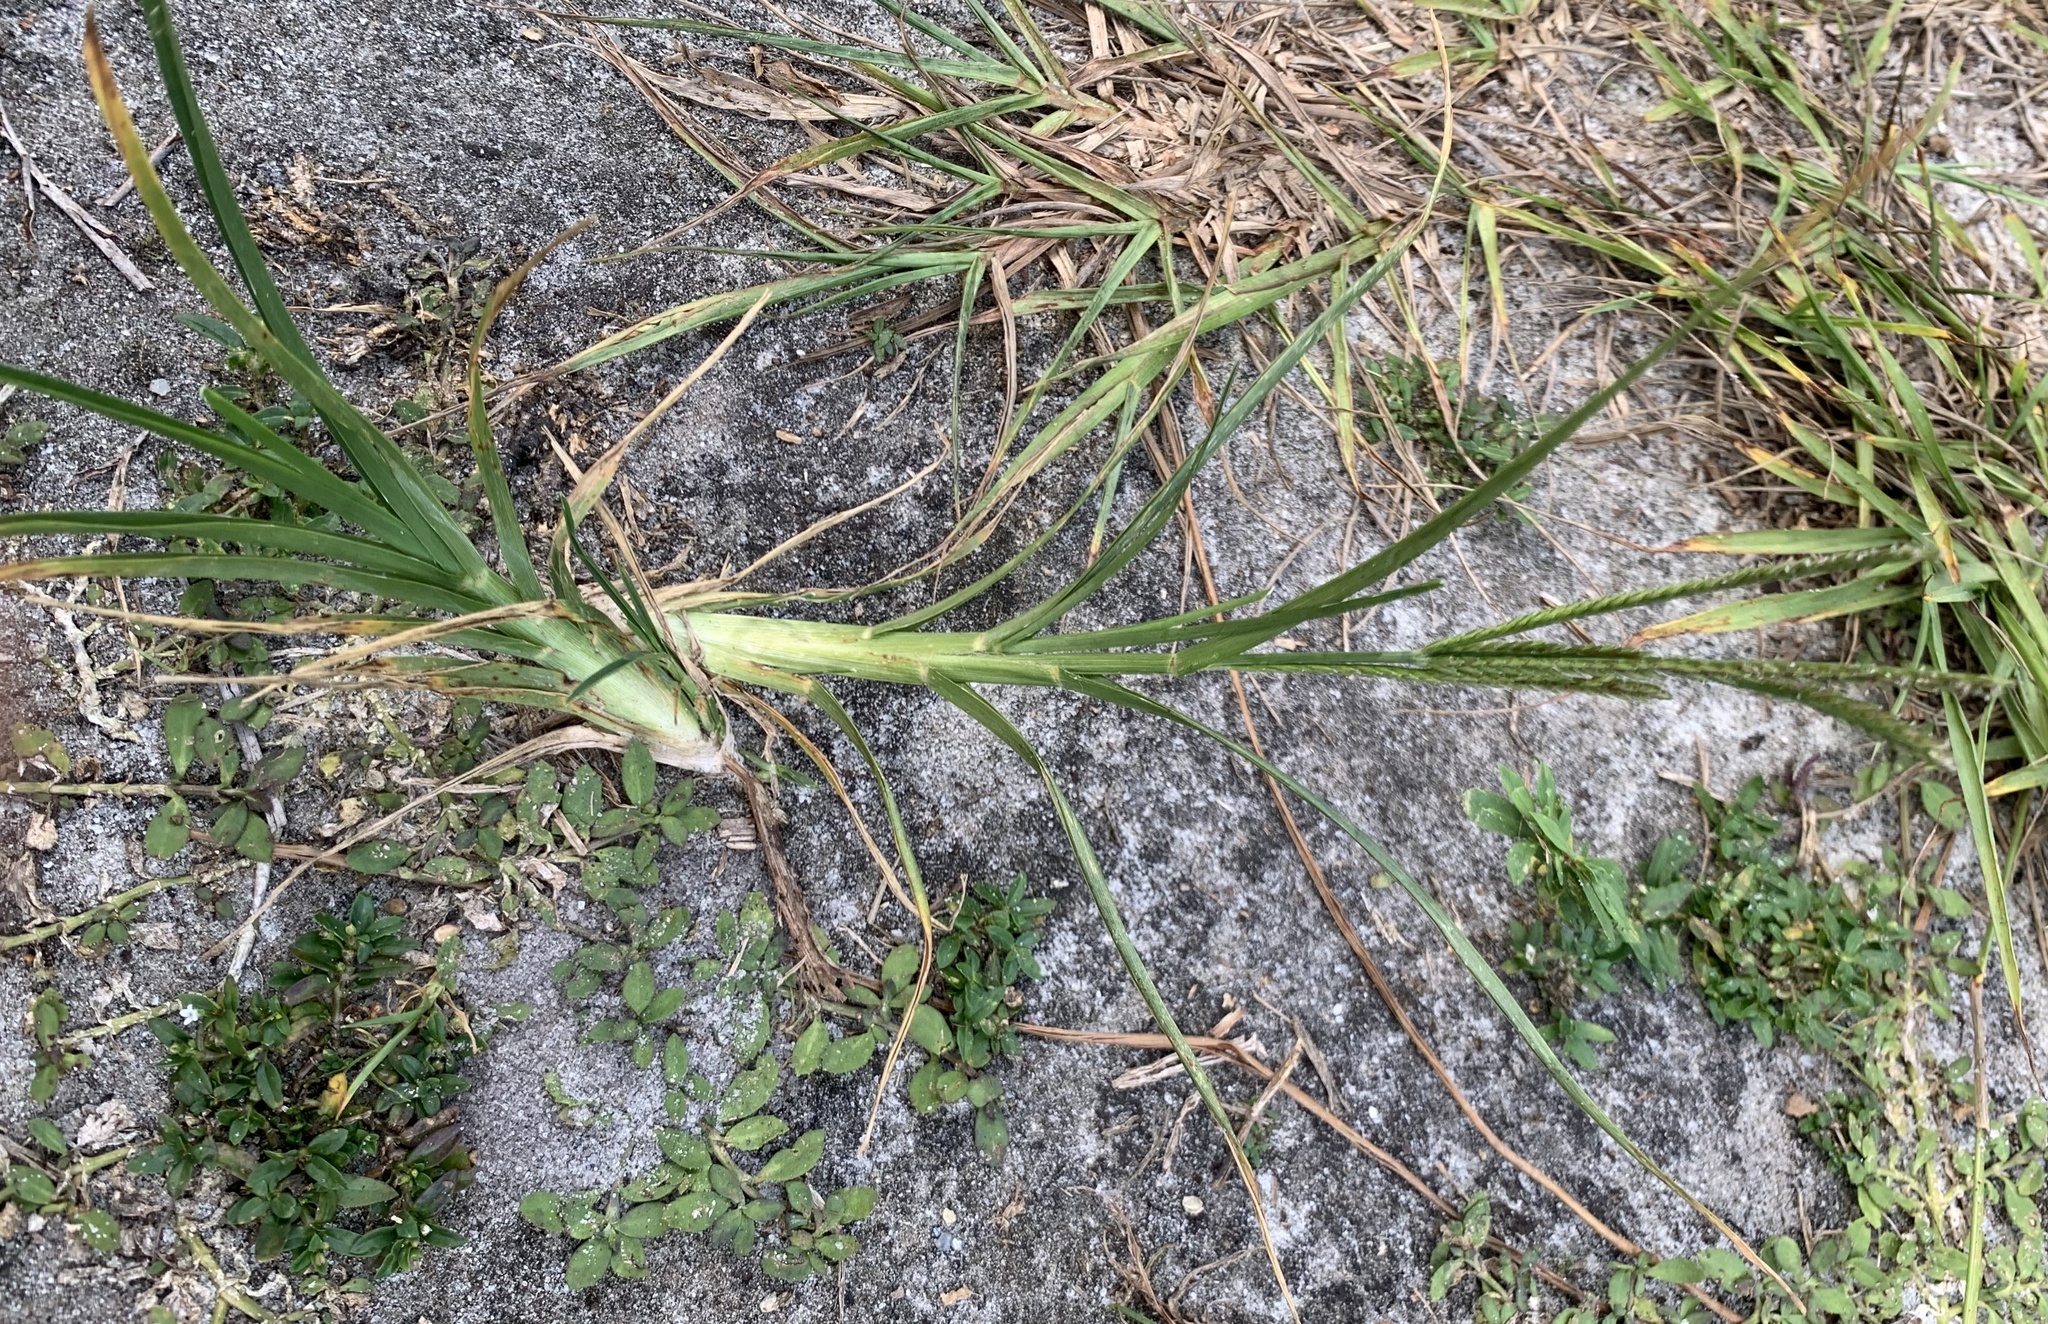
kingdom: Plantae
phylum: Tracheophyta
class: Liliopsida
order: Poales
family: Poaceae
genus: Eleusine
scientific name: Eleusine indica
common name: Yard-grass
